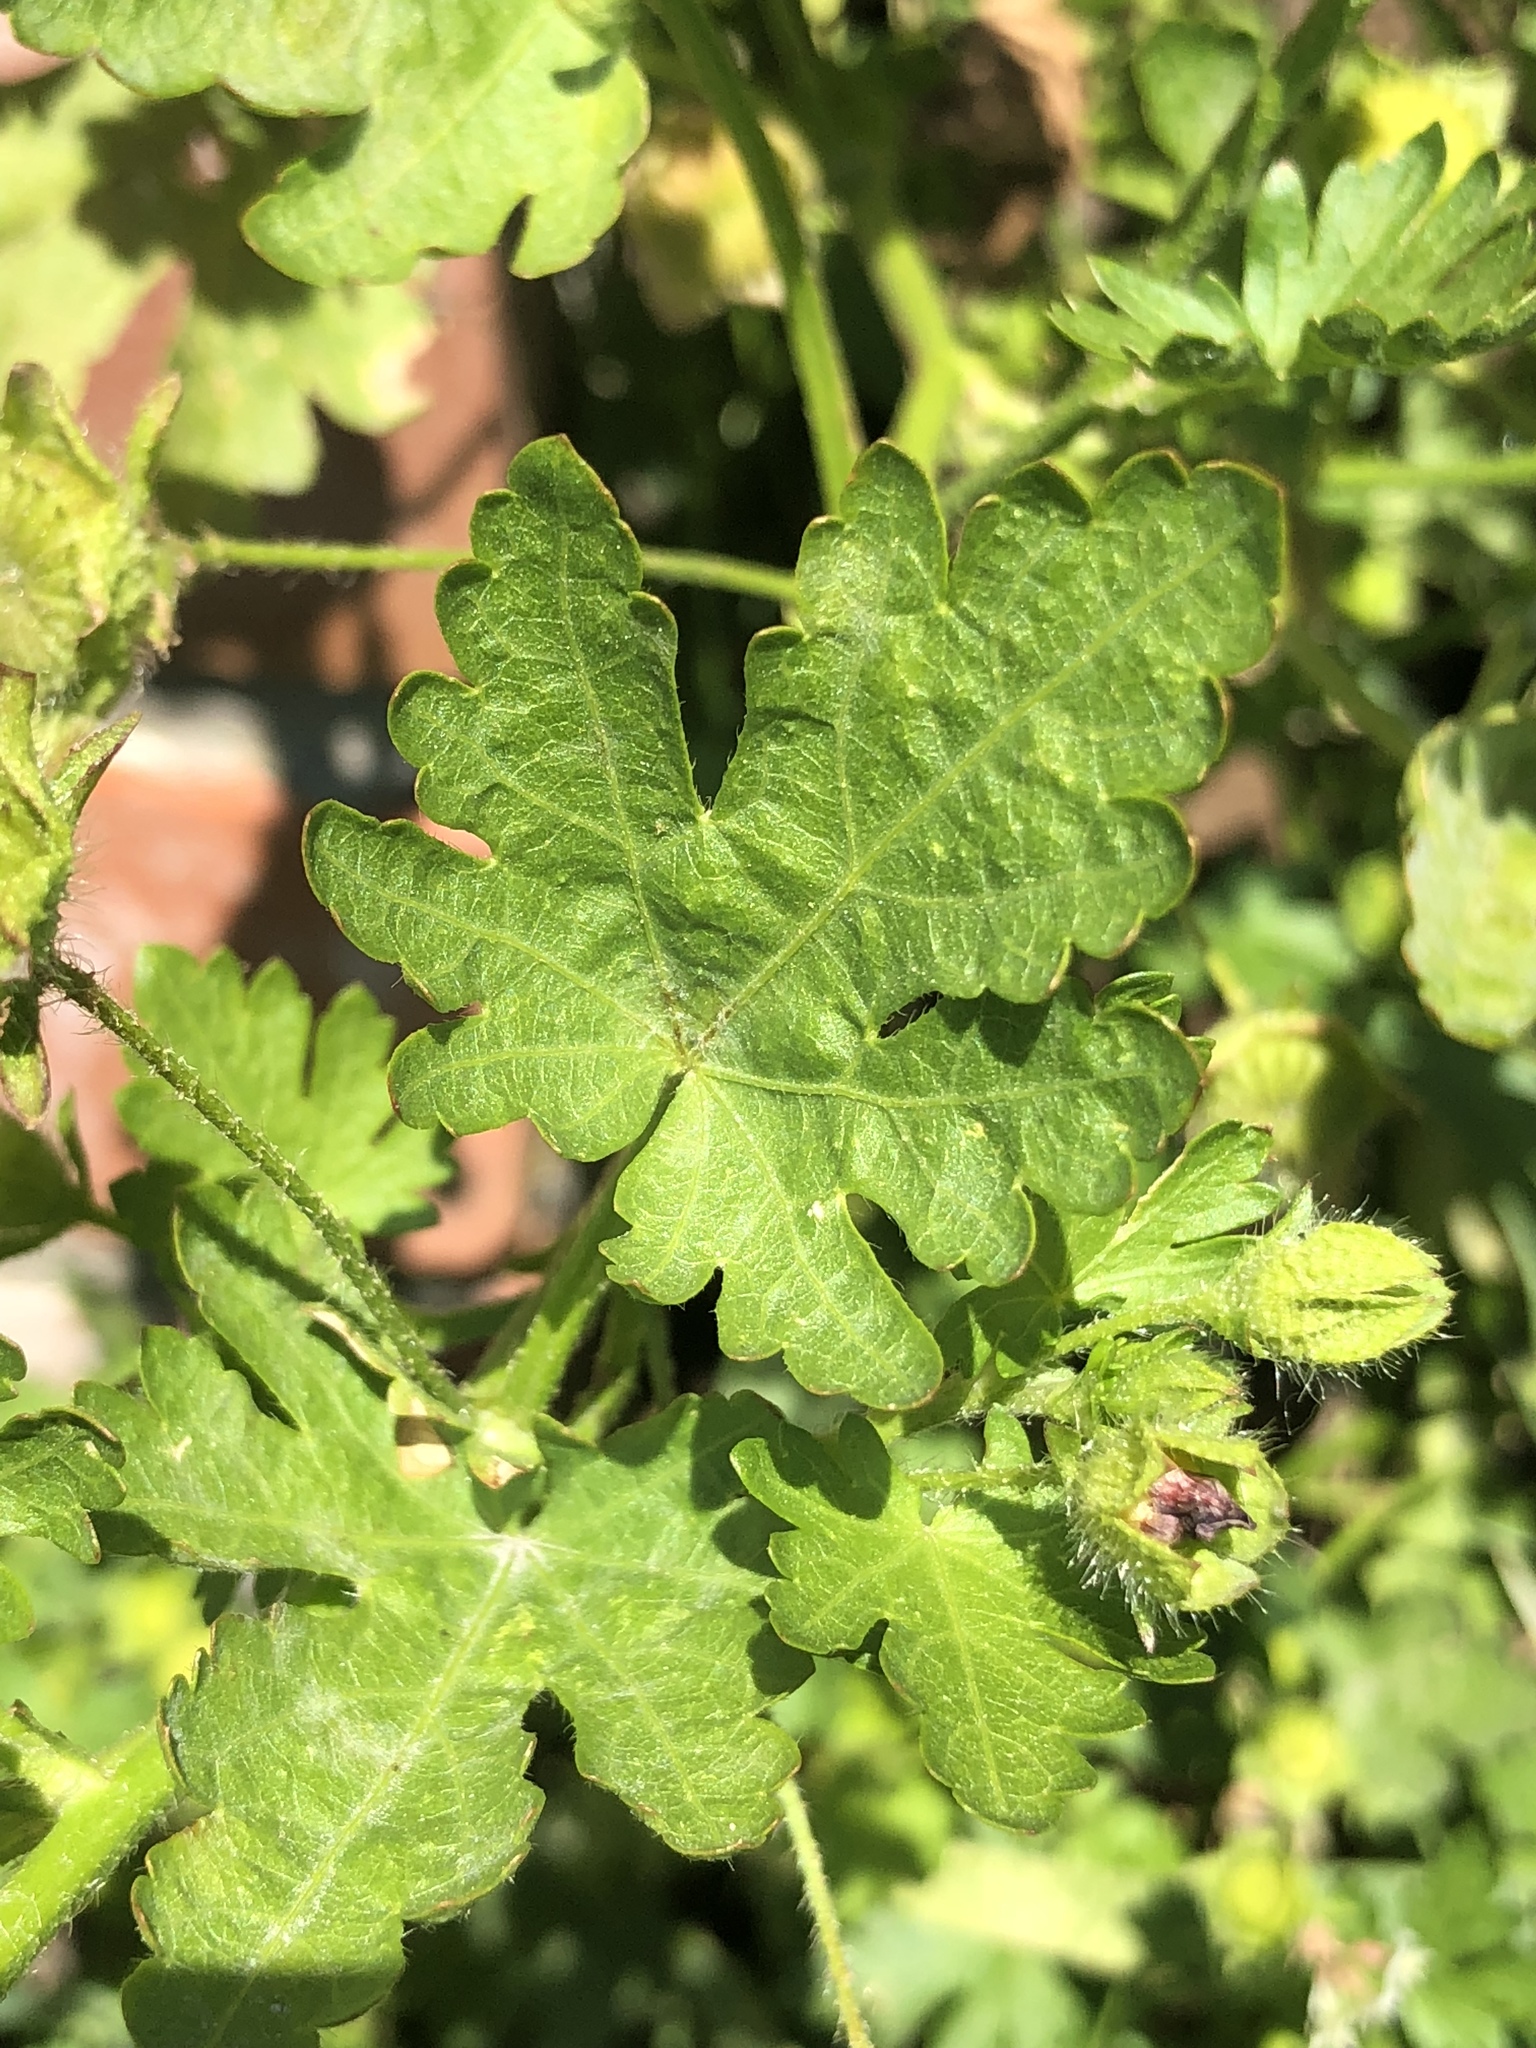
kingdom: Plantae
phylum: Tracheophyta
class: Magnoliopsida
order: Malvales
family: Malvaceae
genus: Modiola
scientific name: Modiola caroliniana
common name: Carolina bristlemallow
